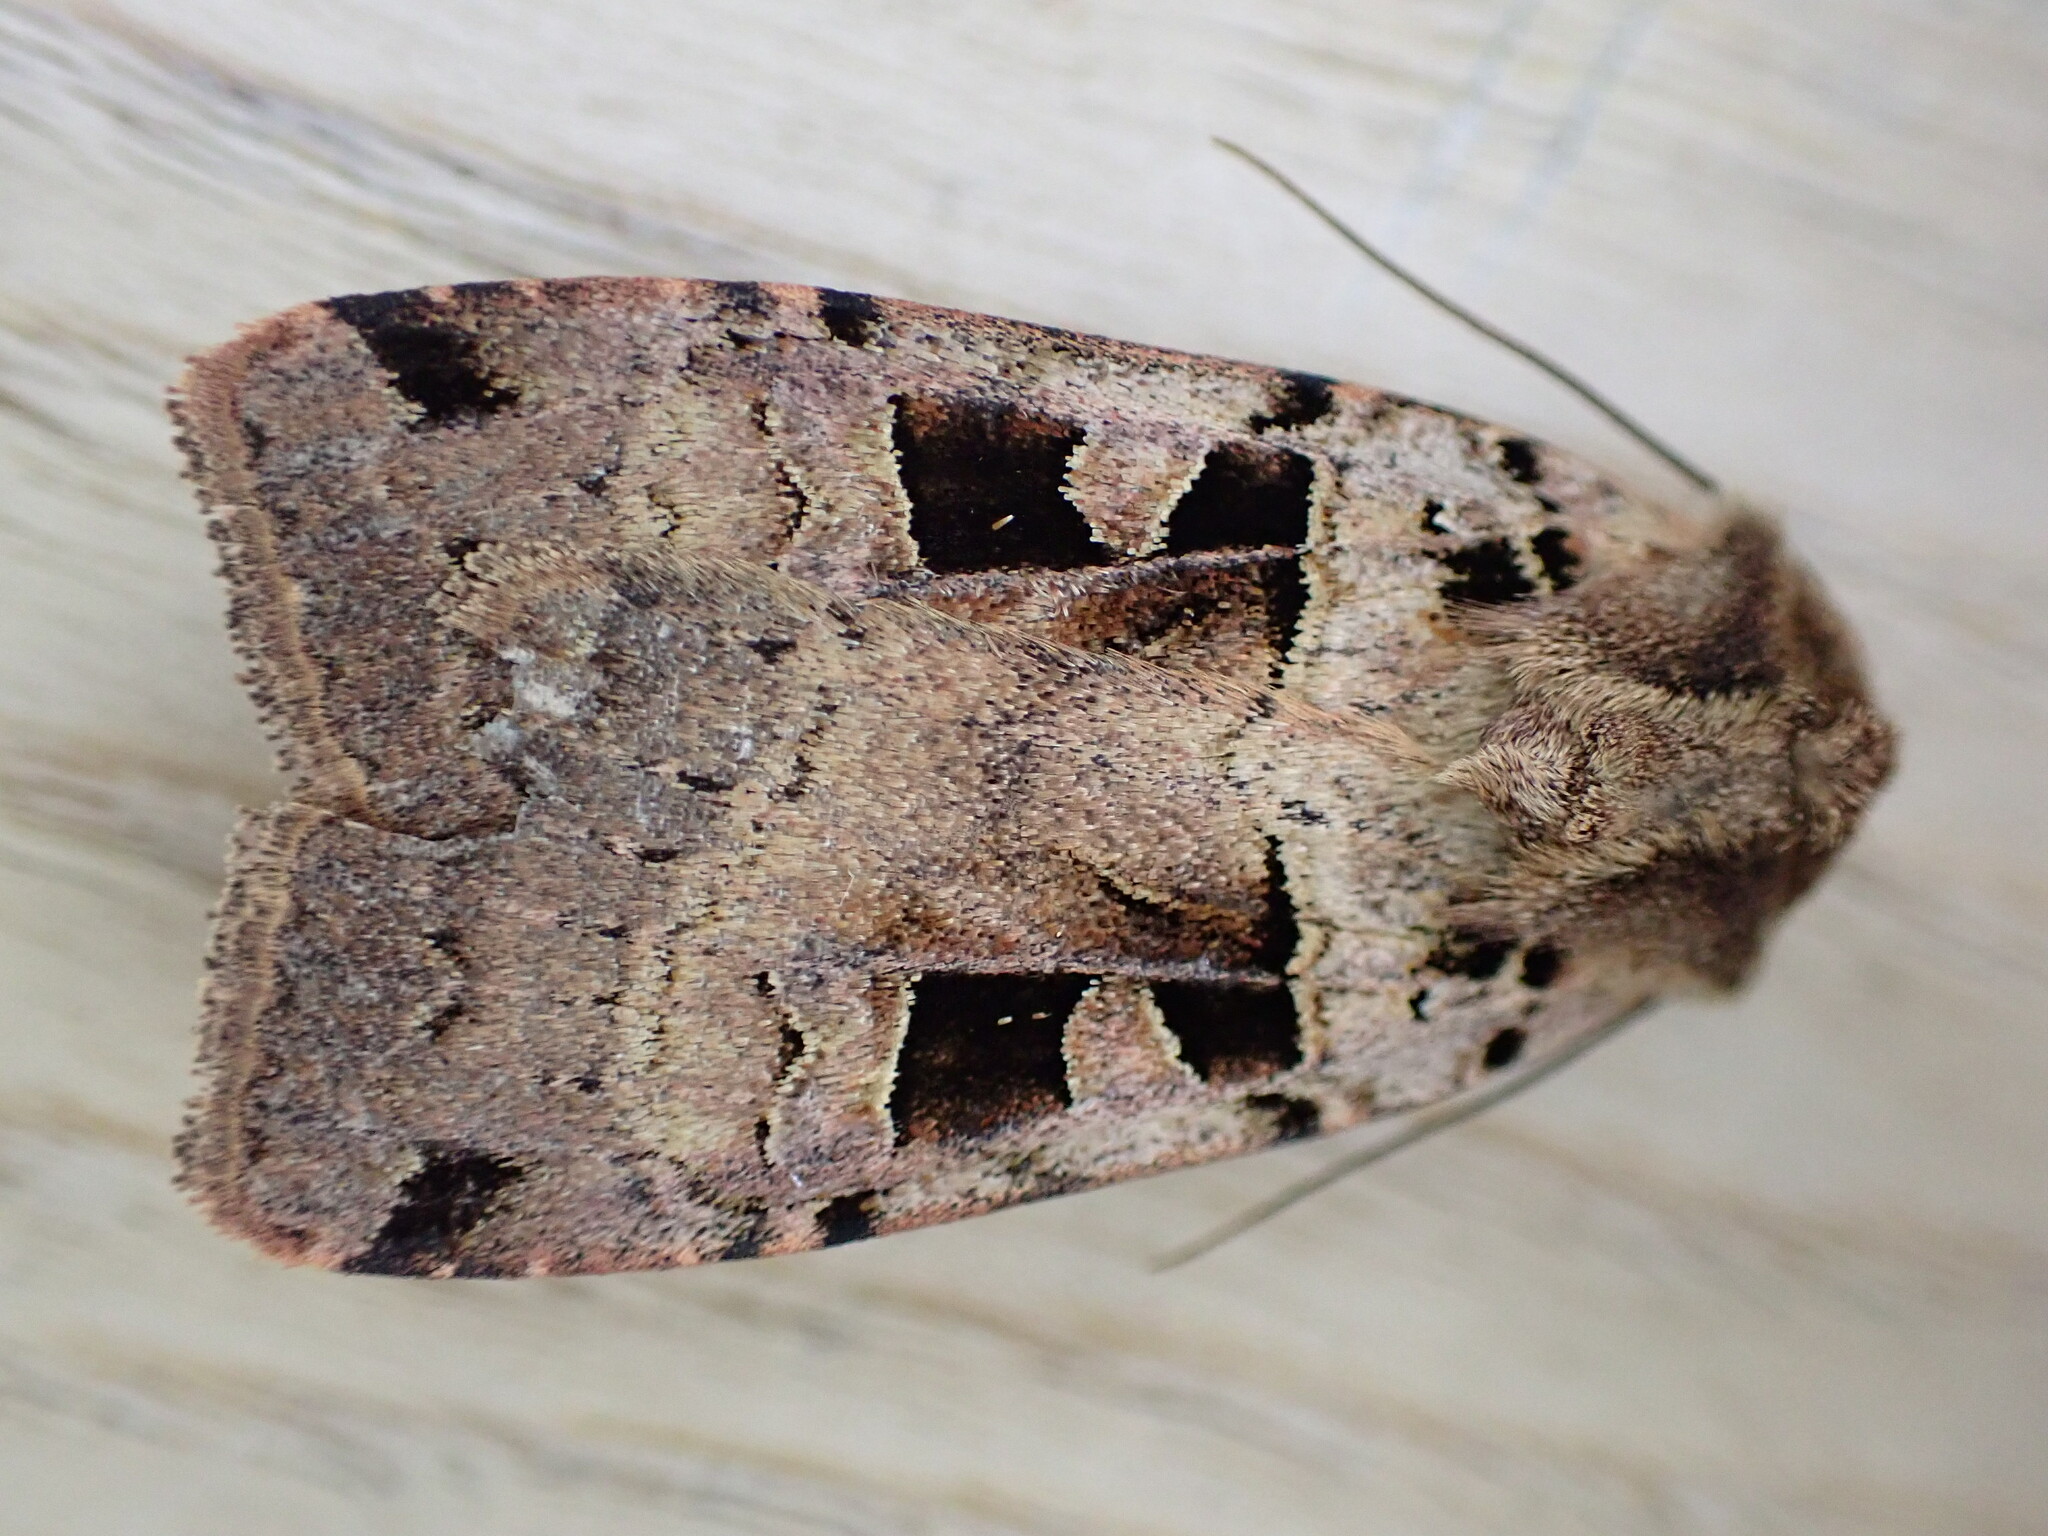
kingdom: Animalia
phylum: Arthropoda
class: Insecta
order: Lepidoptera
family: Noctuidae
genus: Xestia
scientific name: Xestia triangulum
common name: Double square-spot
